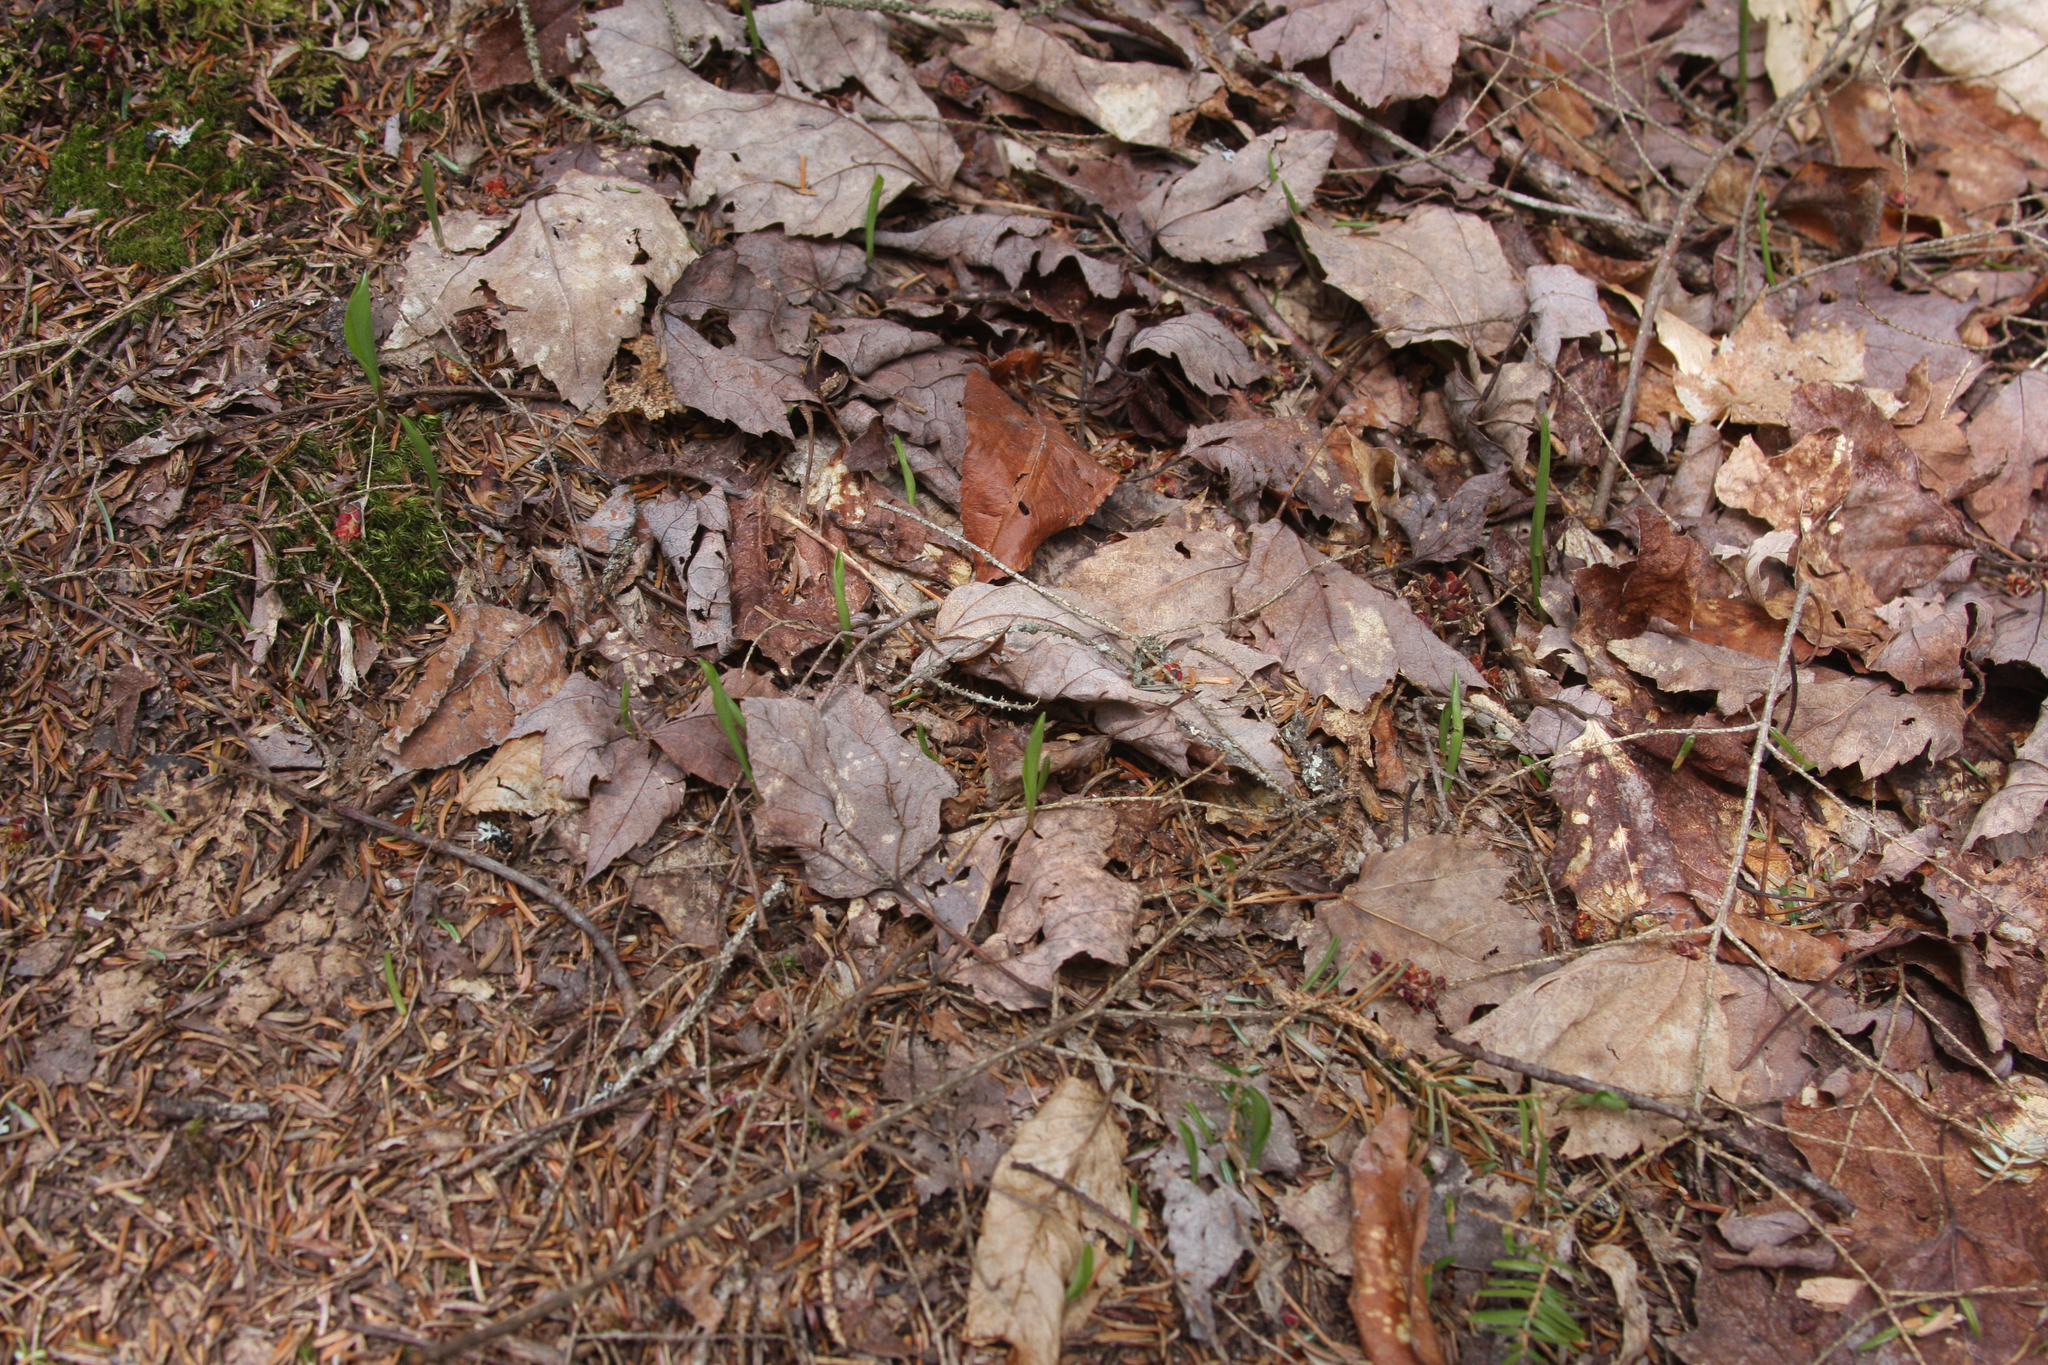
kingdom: Plantae
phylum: Tracheophyta
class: Liliopsida
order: Asparagales
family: Asparagaceae
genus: Maianthemum
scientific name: Maianthemum canadense
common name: False lily-of-the-valley
